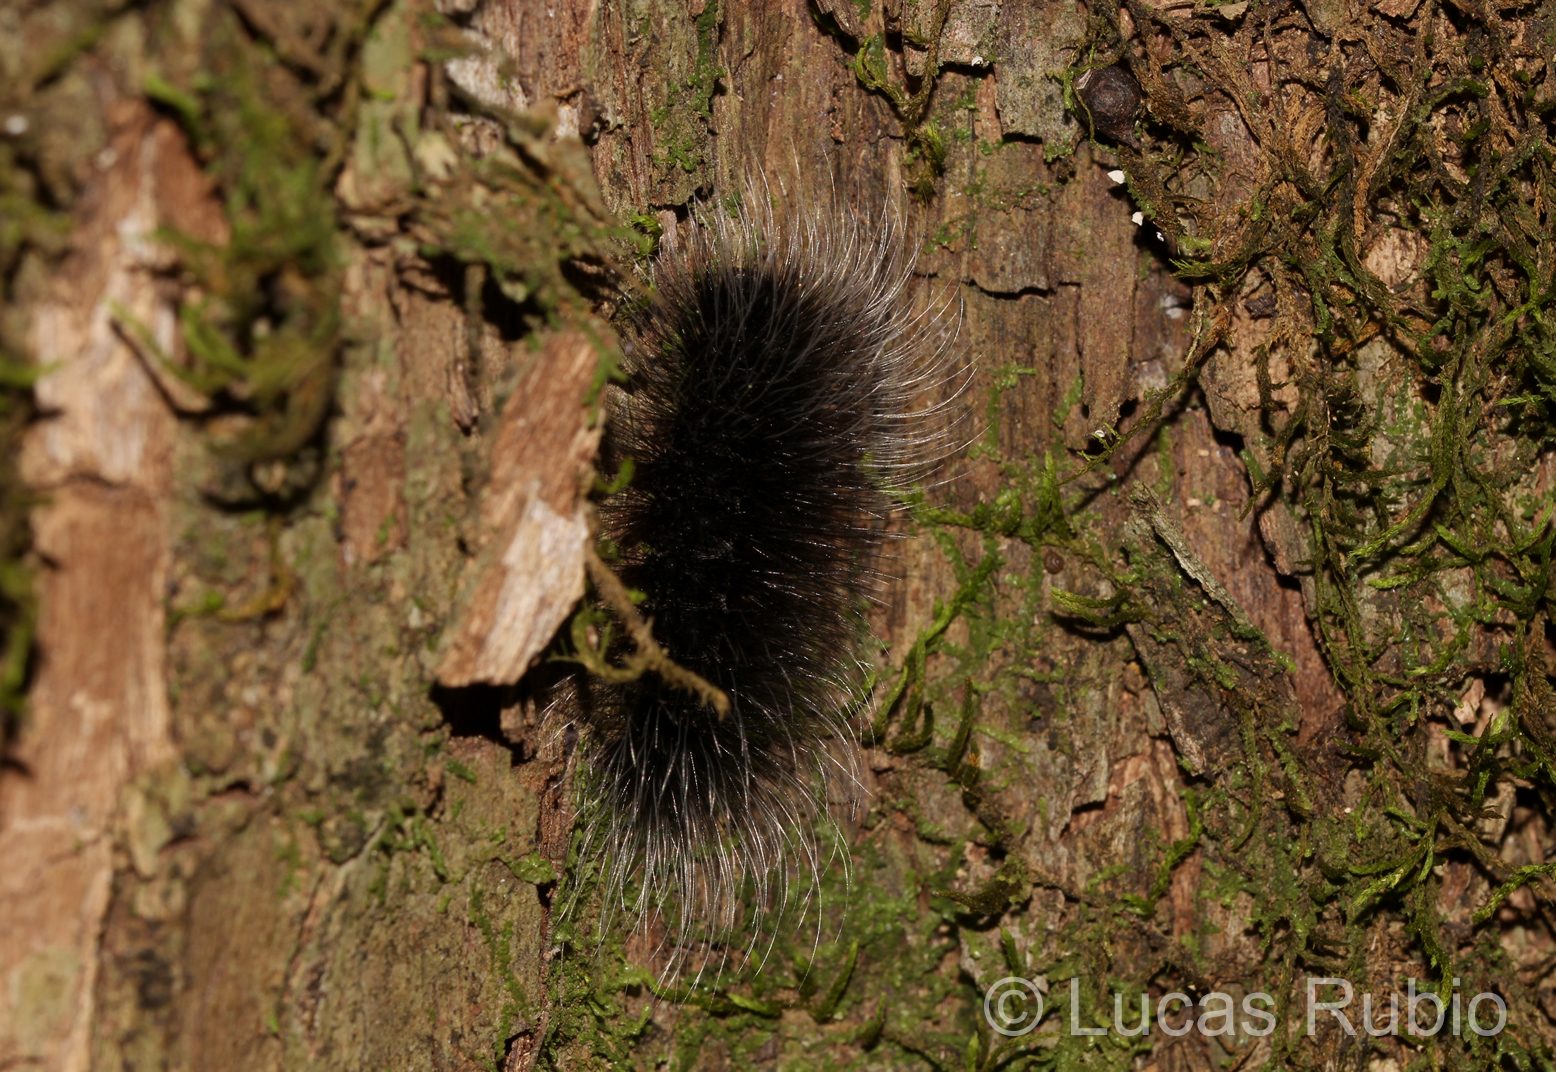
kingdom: Animalia
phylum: Arthropoda
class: Insecta
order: Lepidoptera
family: Erebidae
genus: Apistosia
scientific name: Apistosia judas
